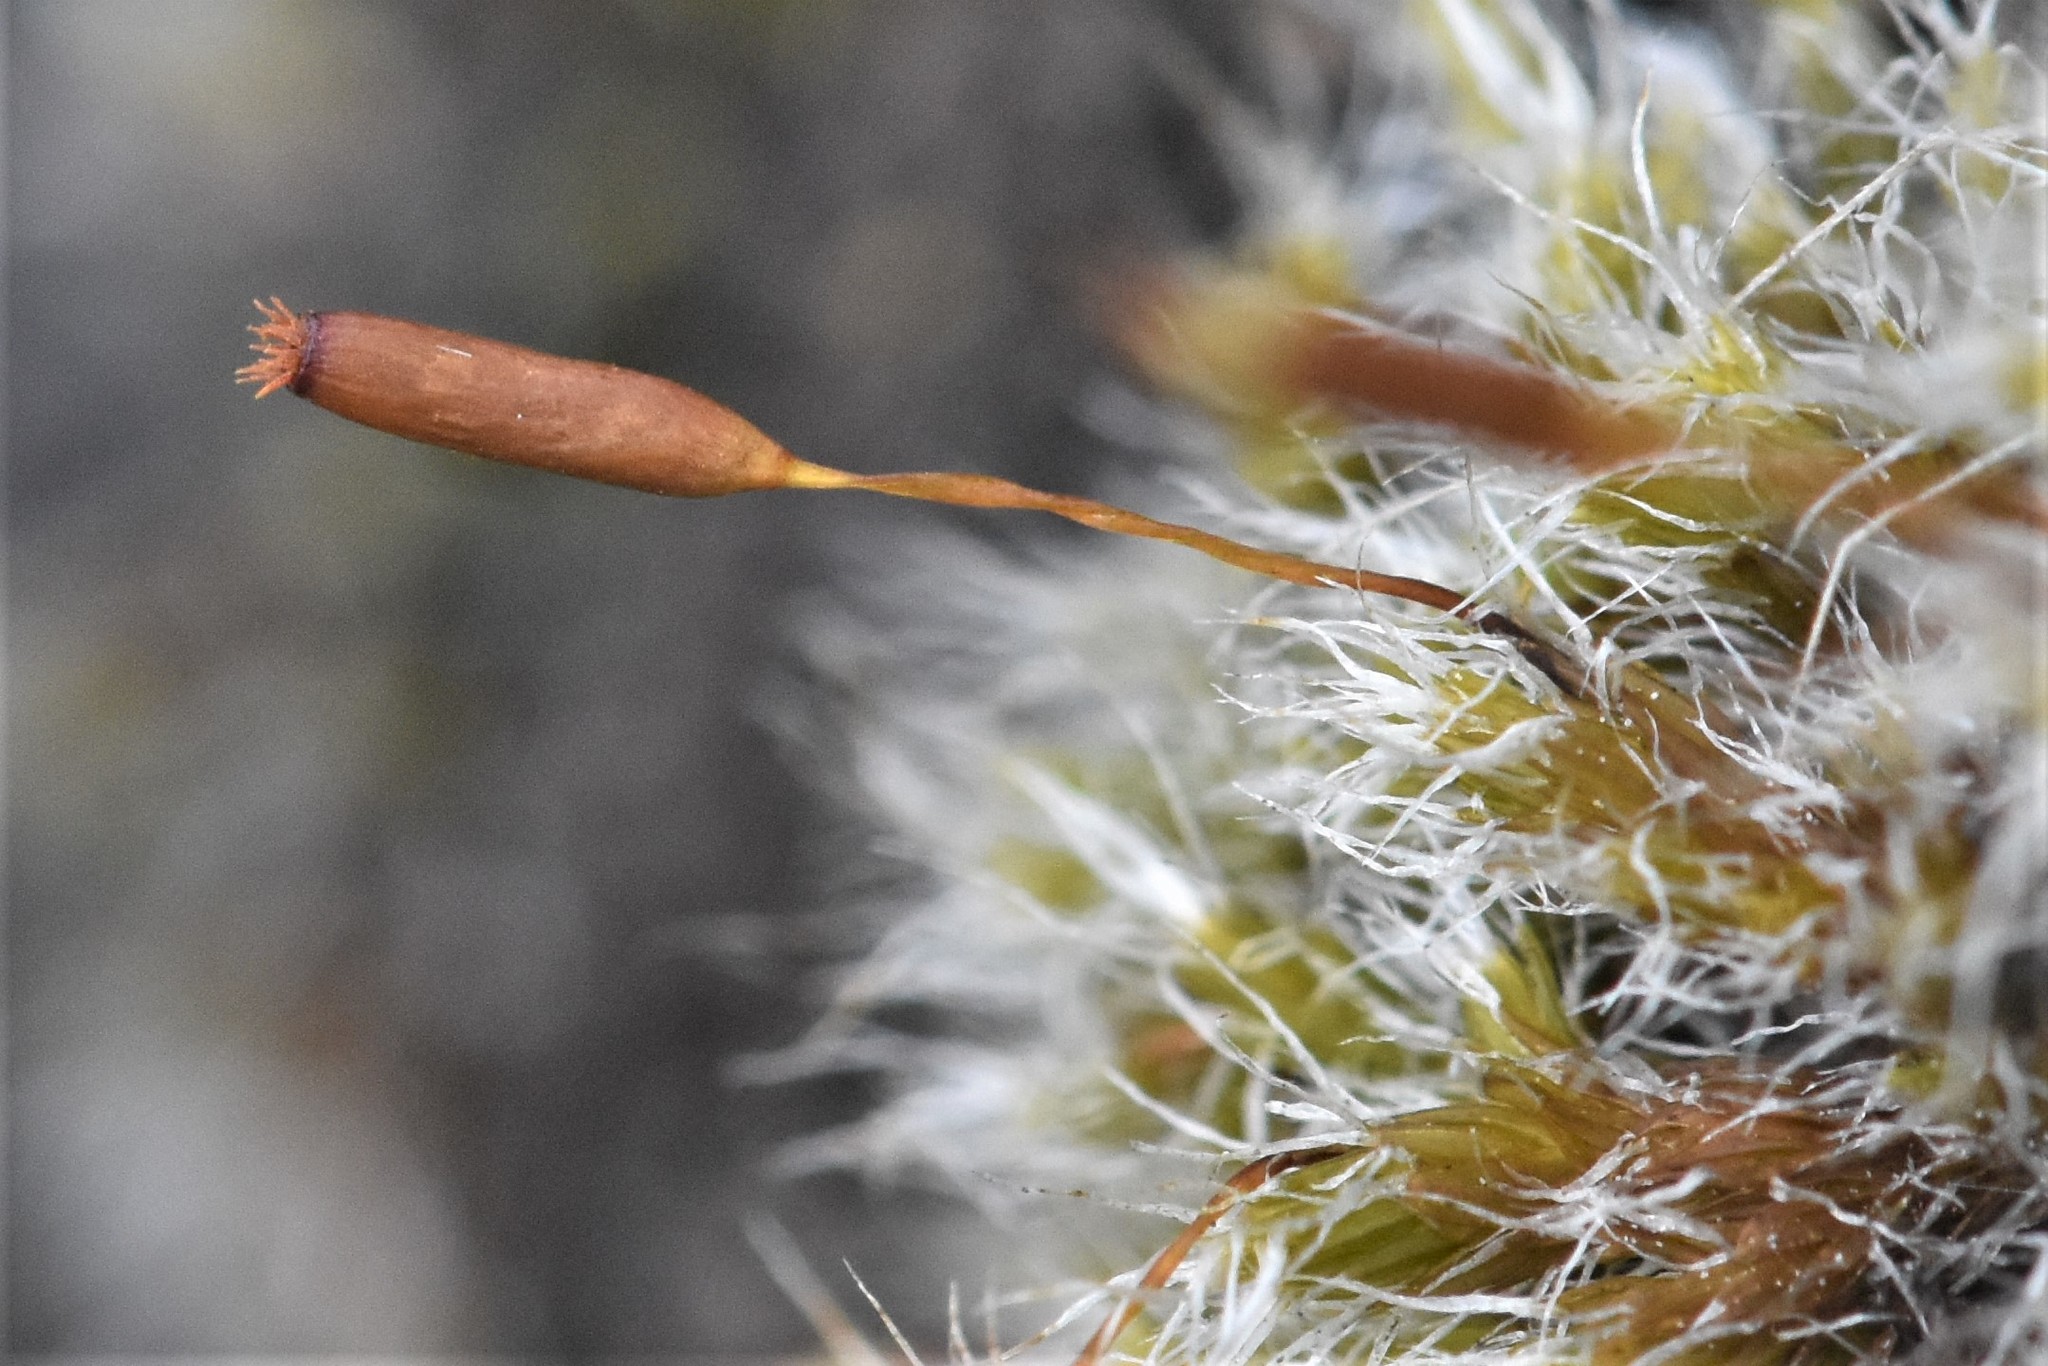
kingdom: Plantae
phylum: Bryophyta
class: Bryopsida
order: Grimmiales
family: Grimmiaceae
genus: Racomitrium
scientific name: Racomitrium lanuginosum
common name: Hoary rock moss
